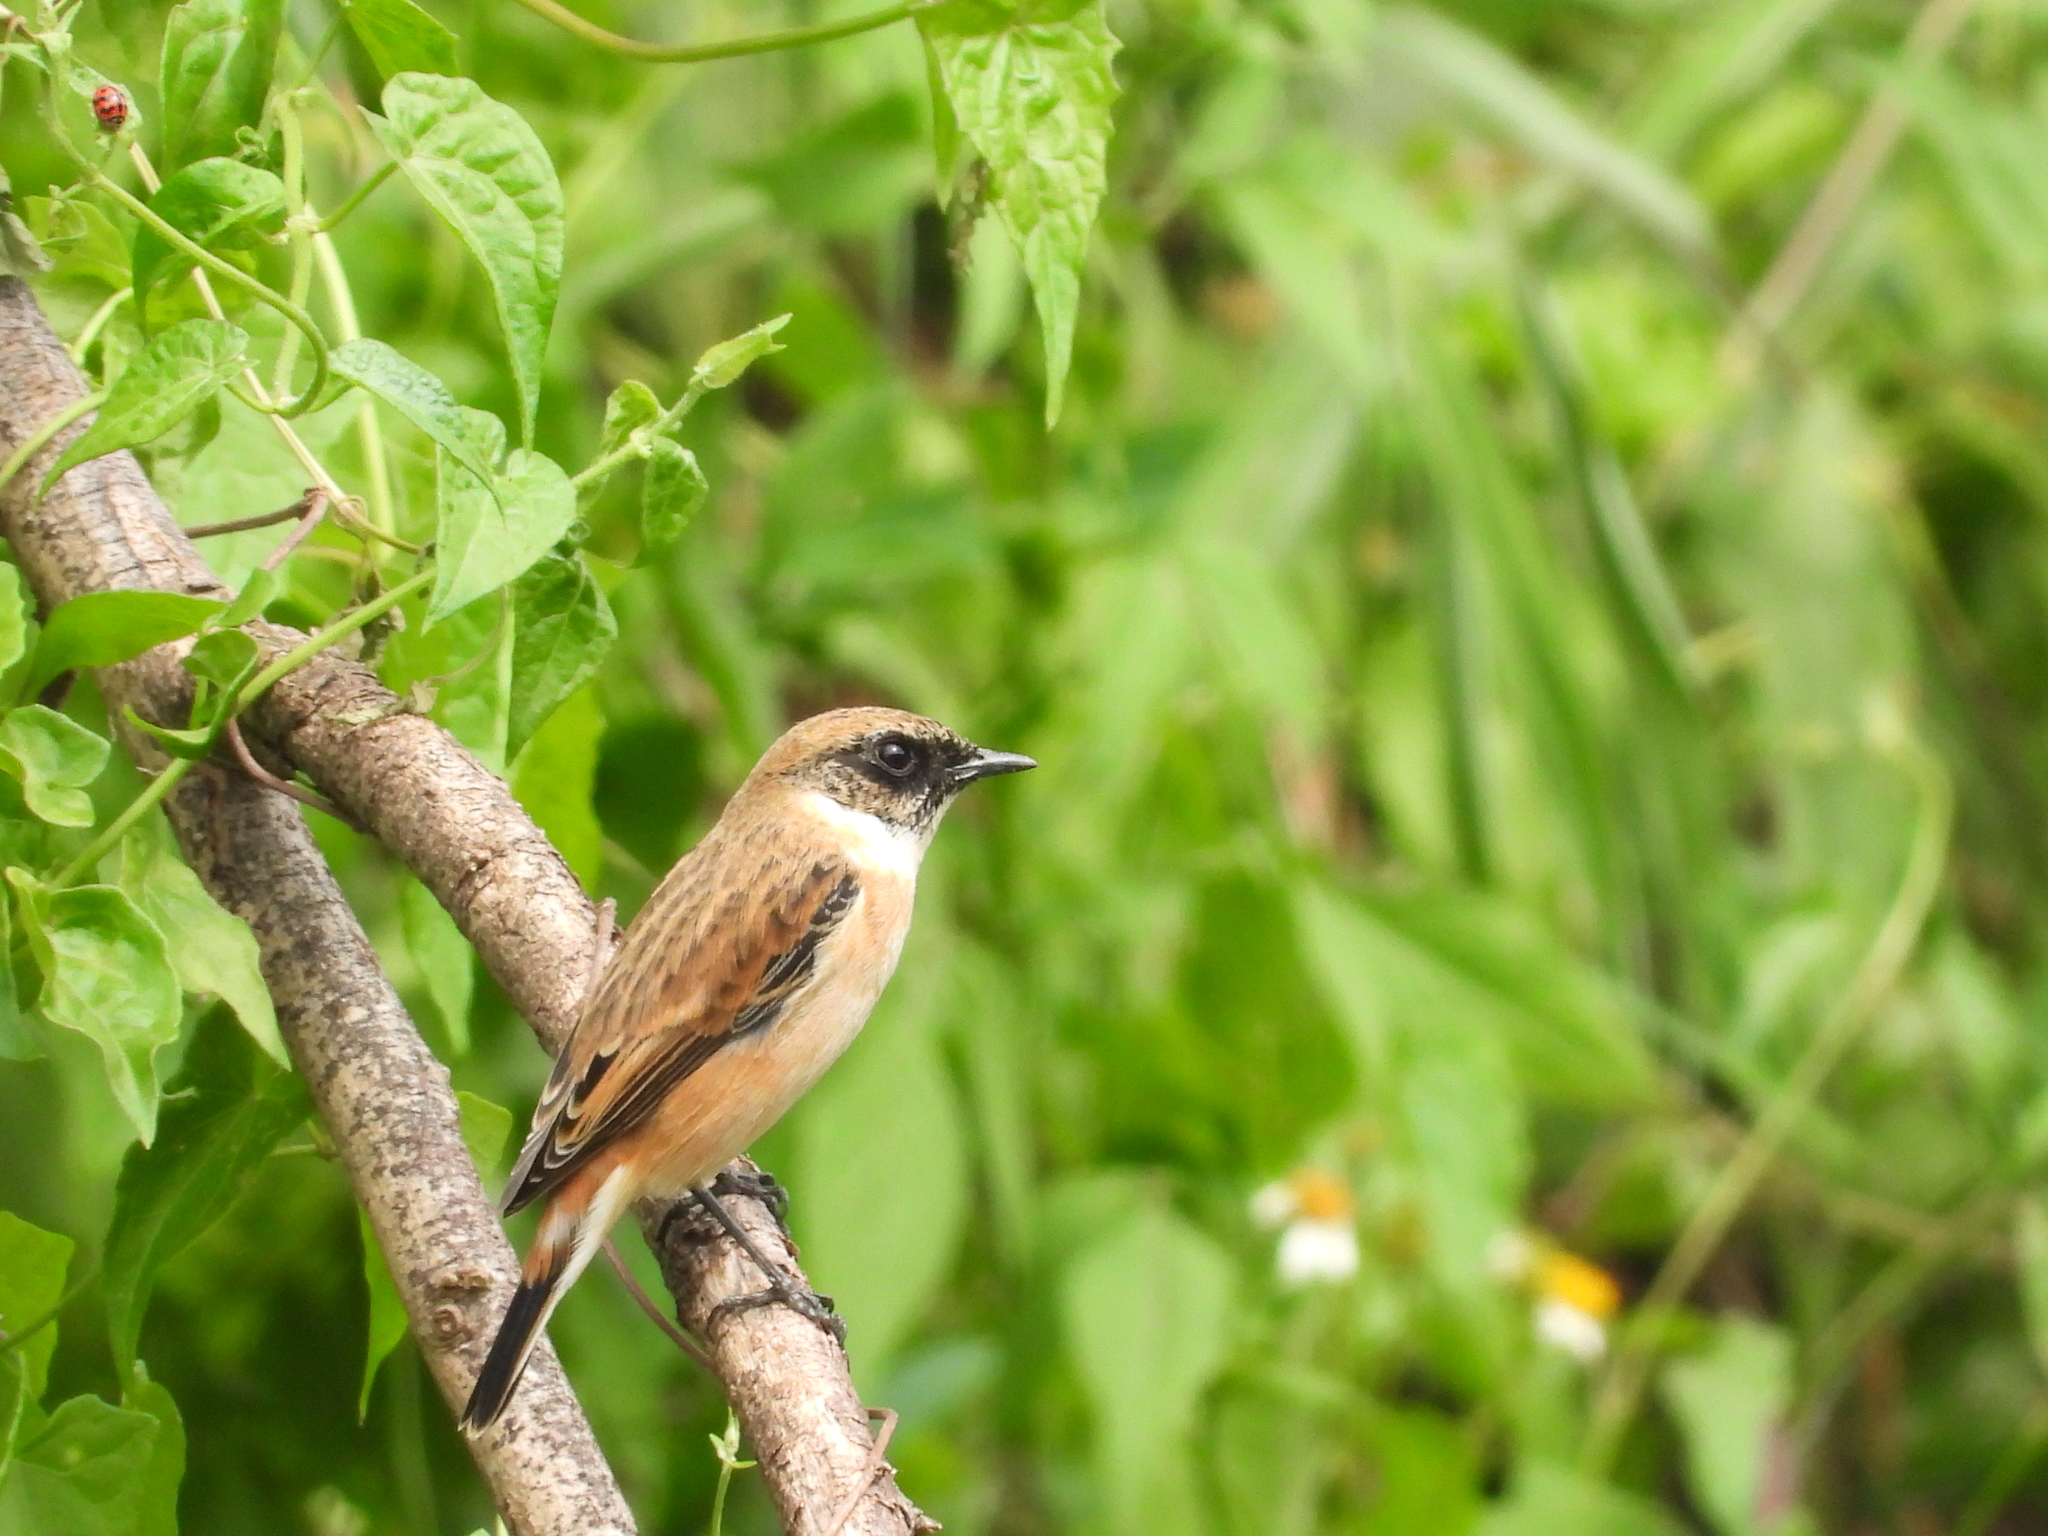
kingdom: Animalia
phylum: Chordata
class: Aves
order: Passeriformes
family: Muscicapidae
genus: Saxicola
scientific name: Saxicola stejnegeri
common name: Stejneger's stonechat
